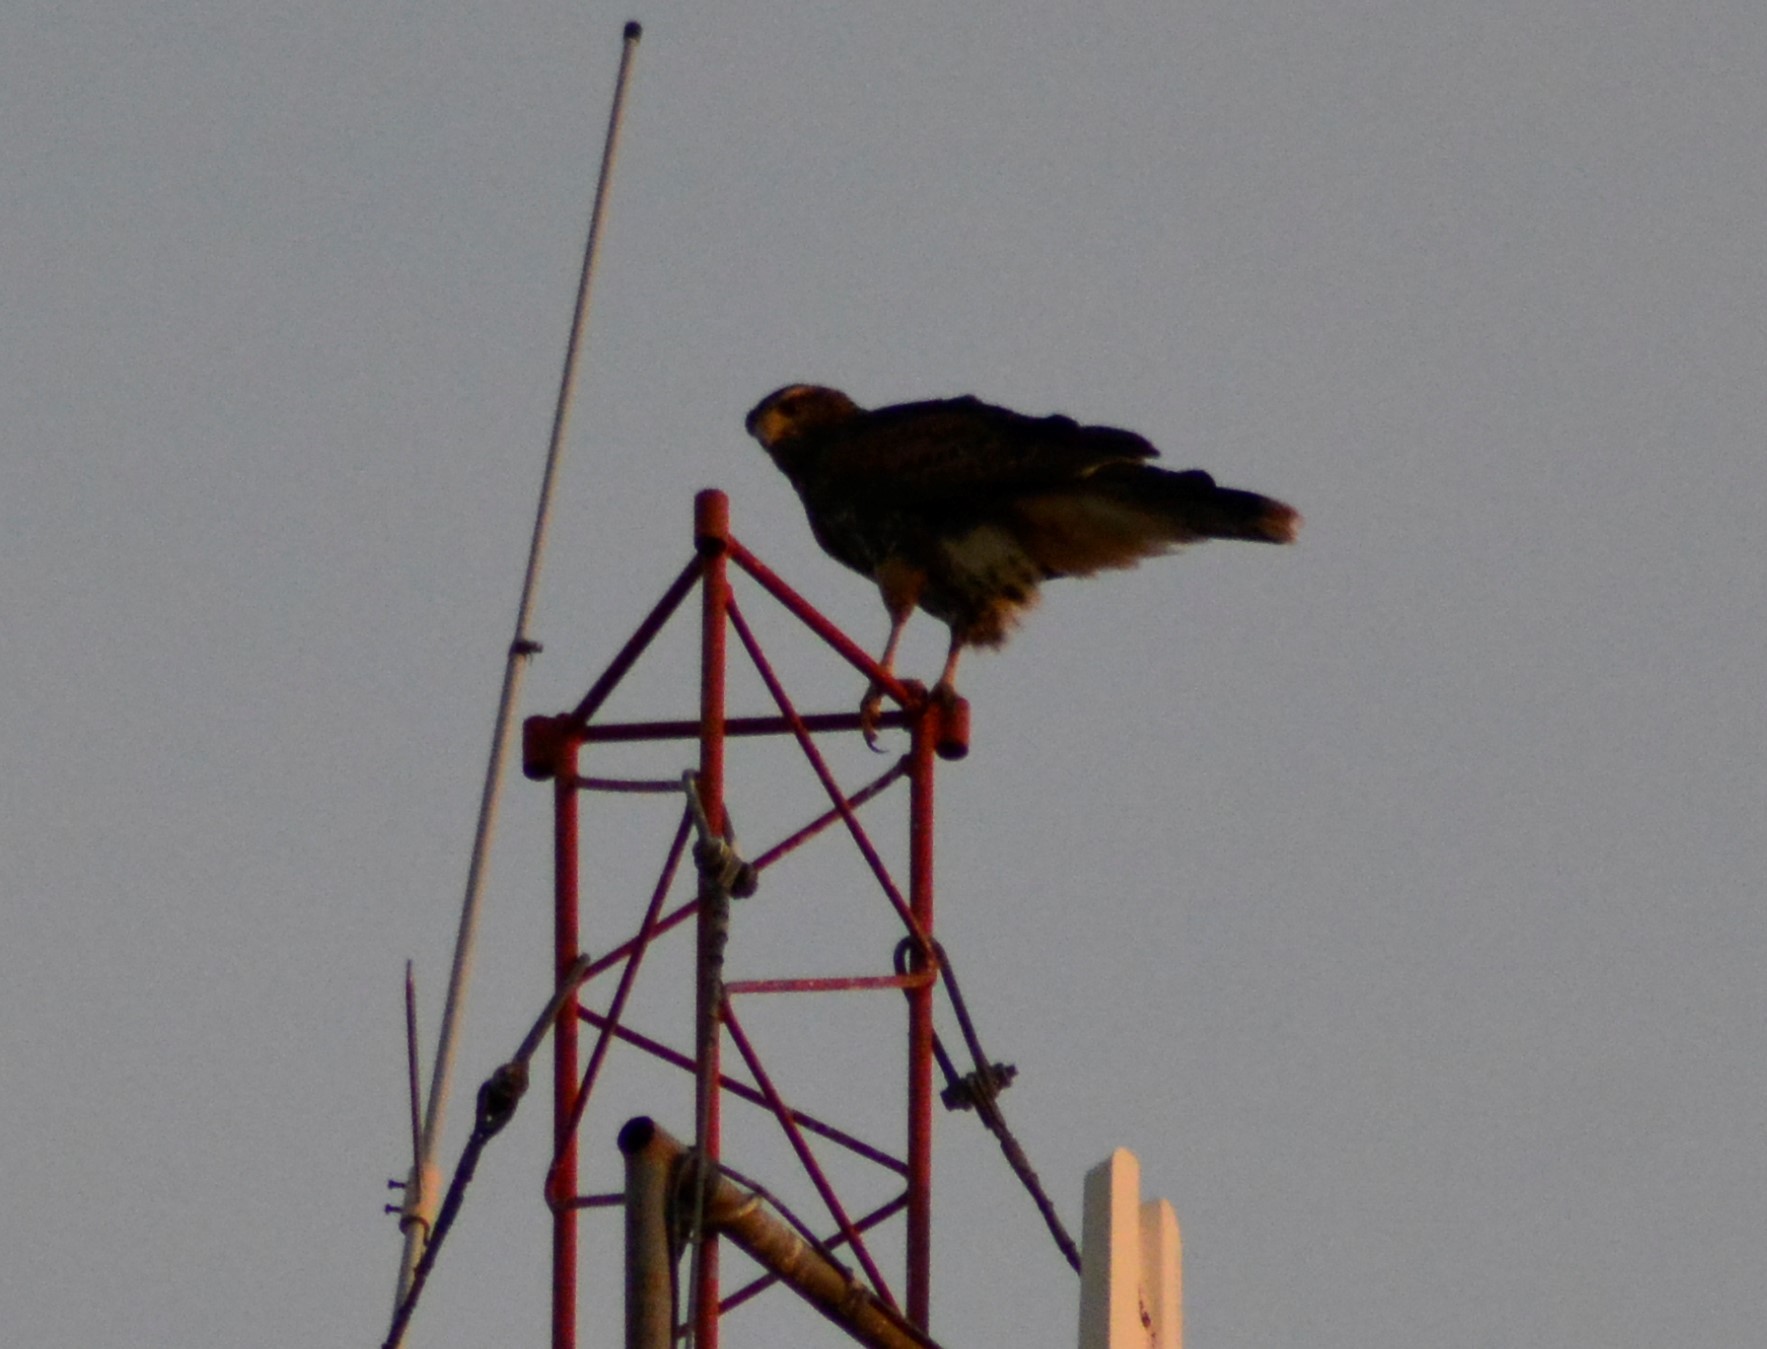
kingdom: Animalia
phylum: Chordata
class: Aves
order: Accipitriformes
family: Accipitridae
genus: Parabuteo
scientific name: Parabuteo unicinctus
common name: Harris's hawk
